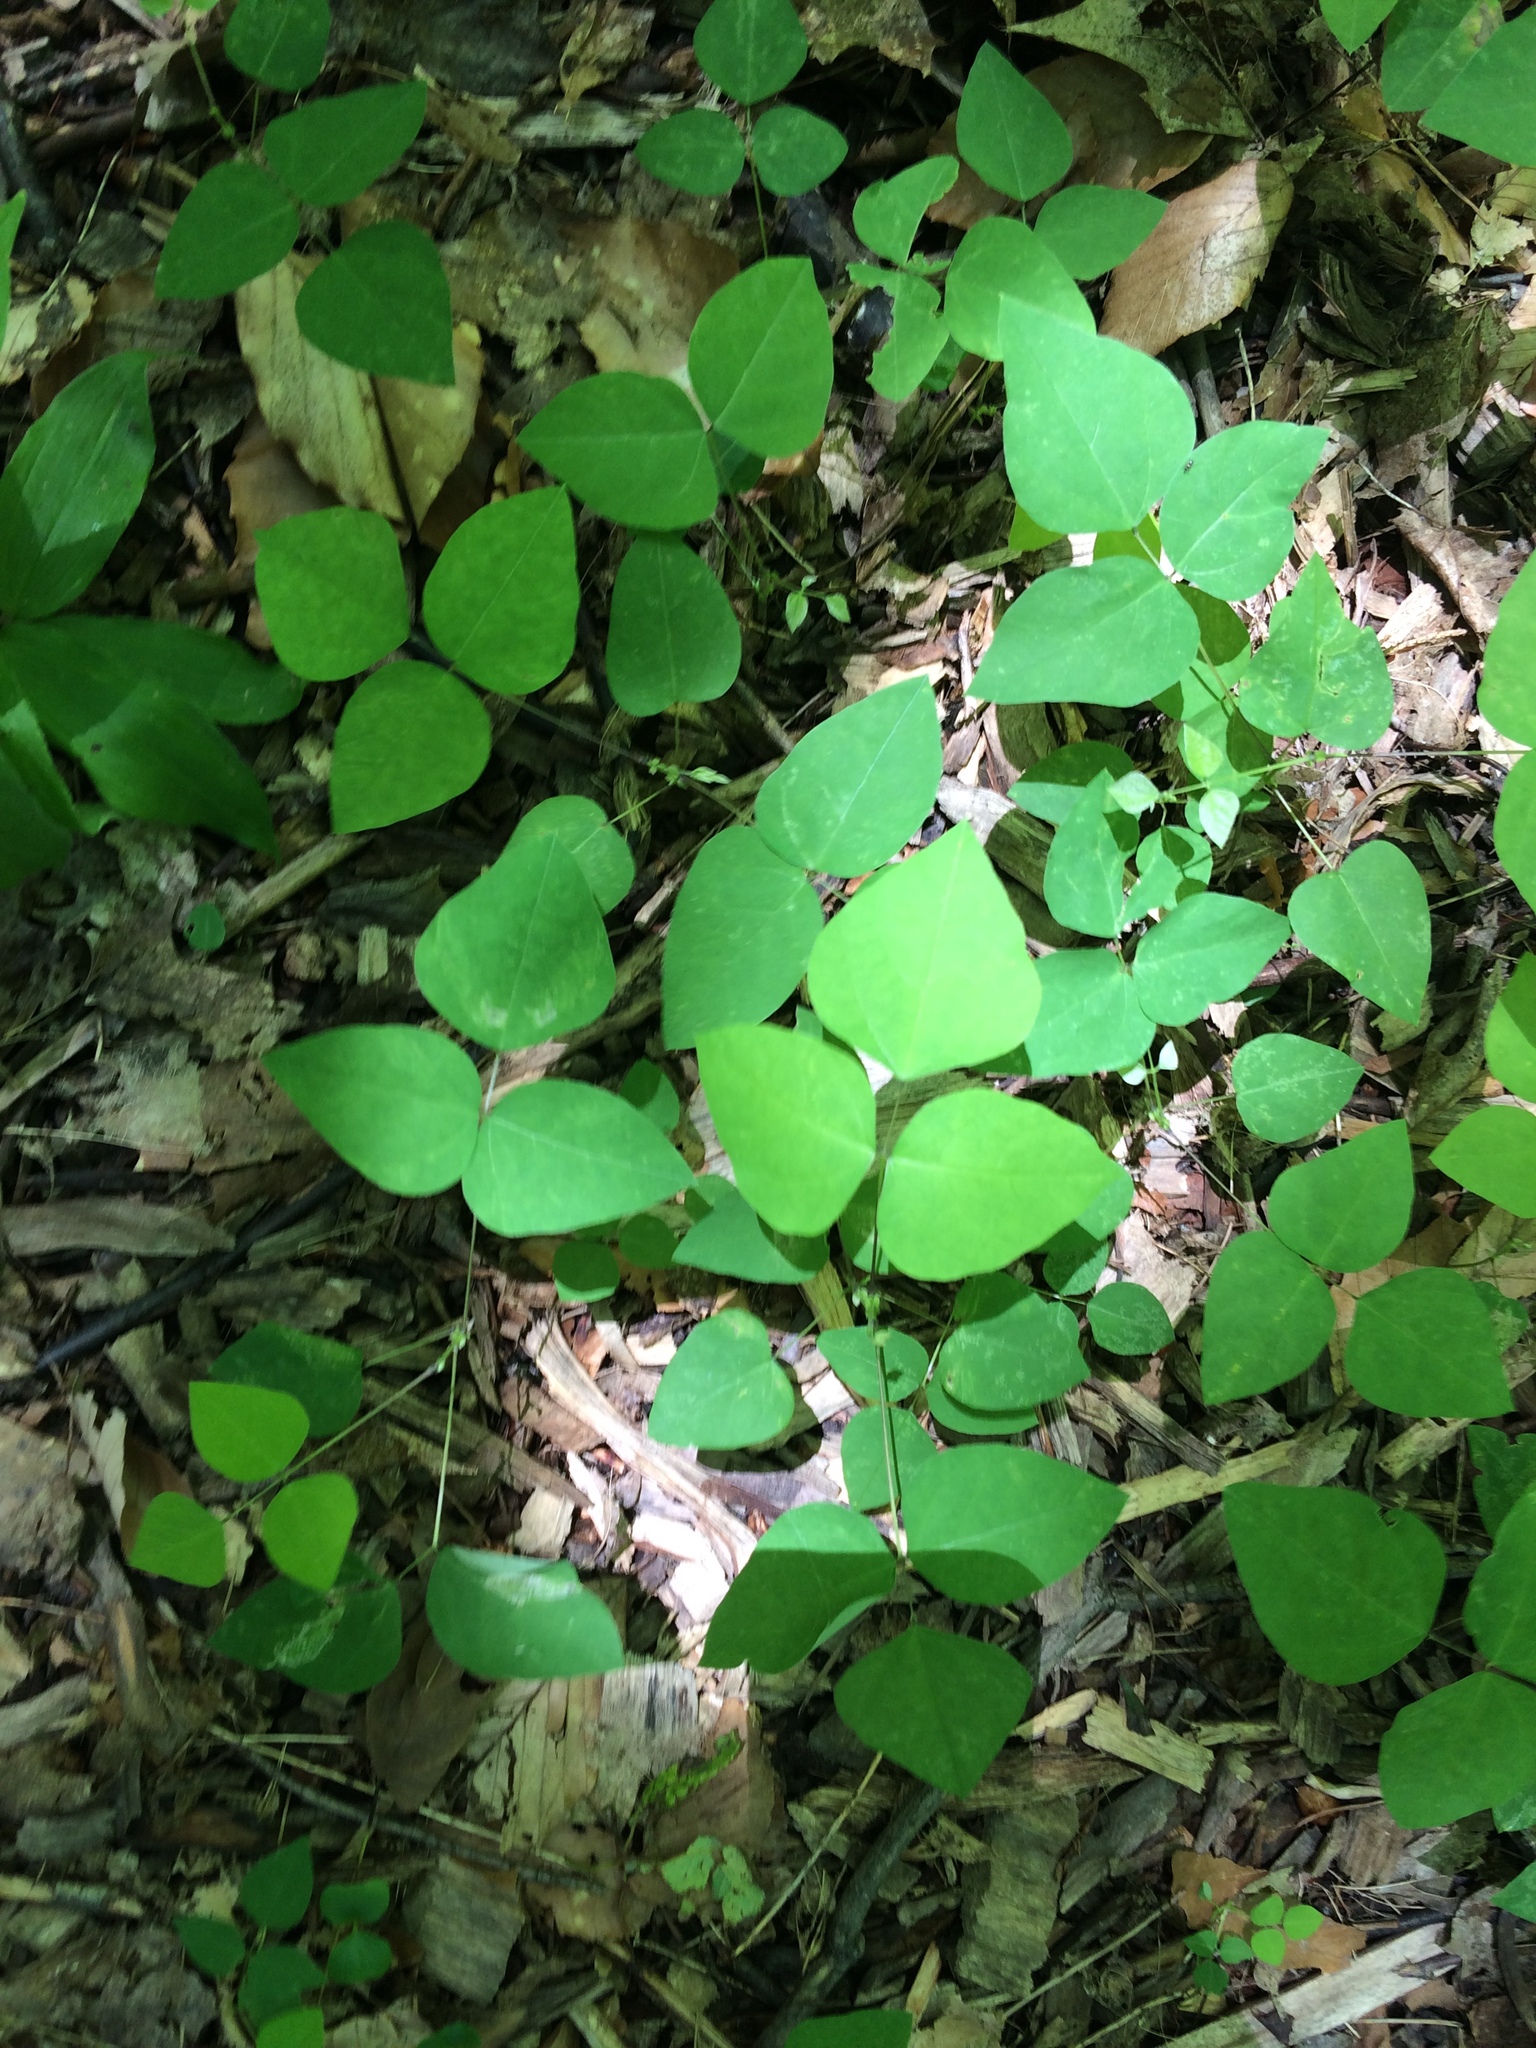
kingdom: Plantae
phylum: Tracheophyta
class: Magnoliopsida
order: Fabales
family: Fabaceae
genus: Amphicarpaea
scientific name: Amphicarpaea bracteata
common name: American hog peanut
